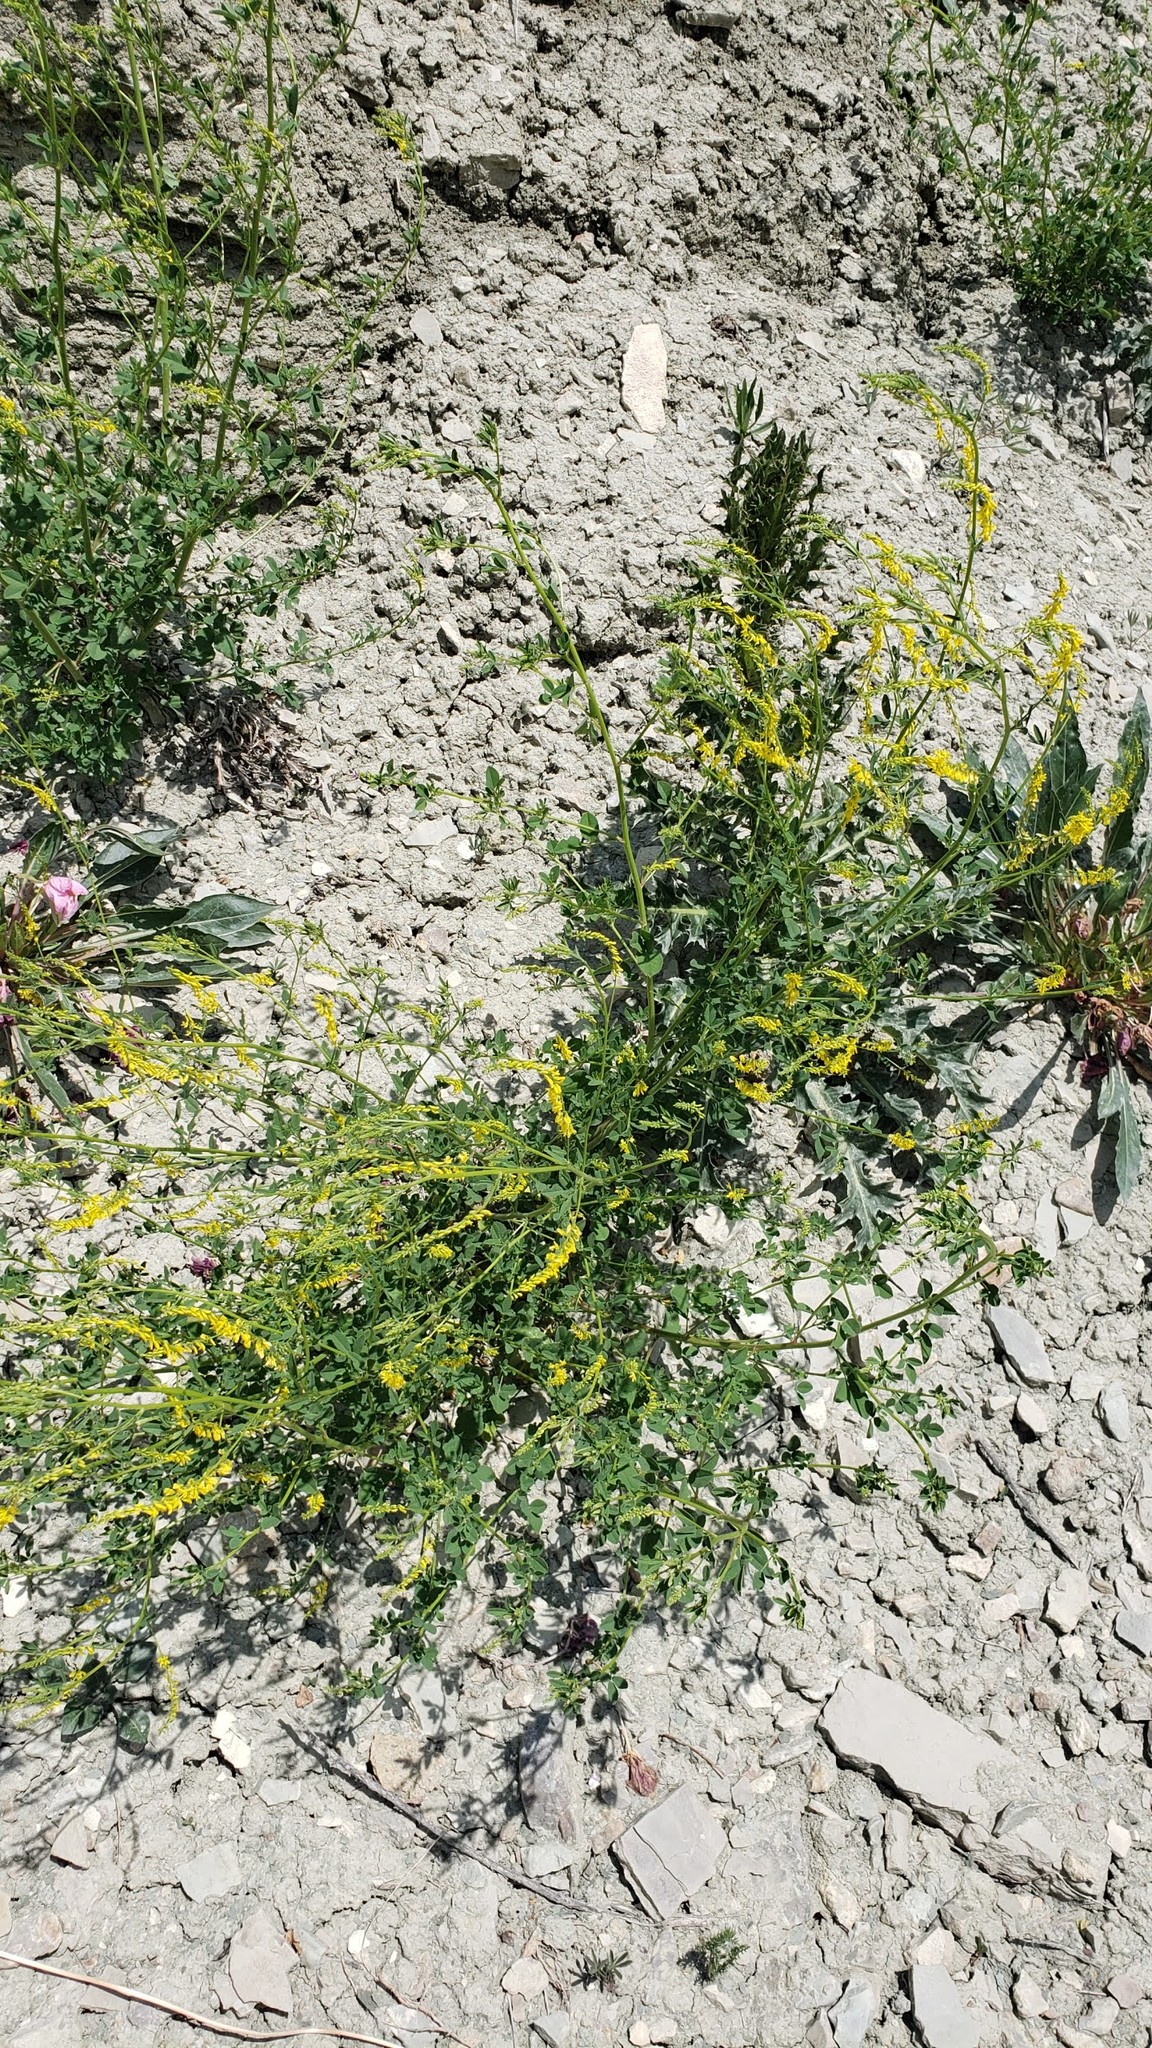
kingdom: Plantae
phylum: Tracheophyta
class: Magnoliopsida
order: Fabales
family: Fabaceae
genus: Melilotus
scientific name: Melilotus officinalis
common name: Sweetclover
